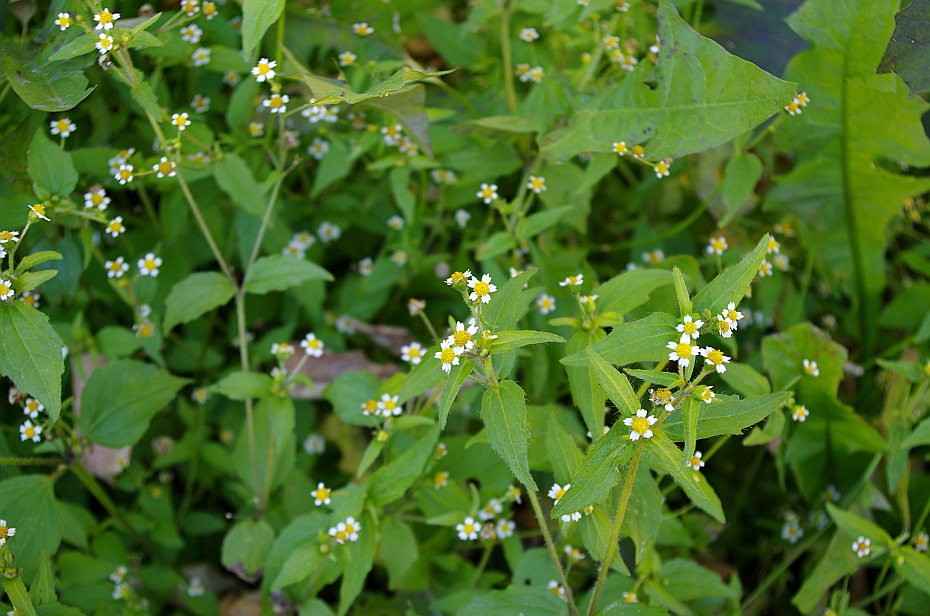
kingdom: Plantae
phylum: Tracheophyta
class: Magnoliopsida
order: Asterales
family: Asteraceae
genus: Galinsoga
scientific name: Galinsoga quadriradiata
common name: Shaggy soldier
